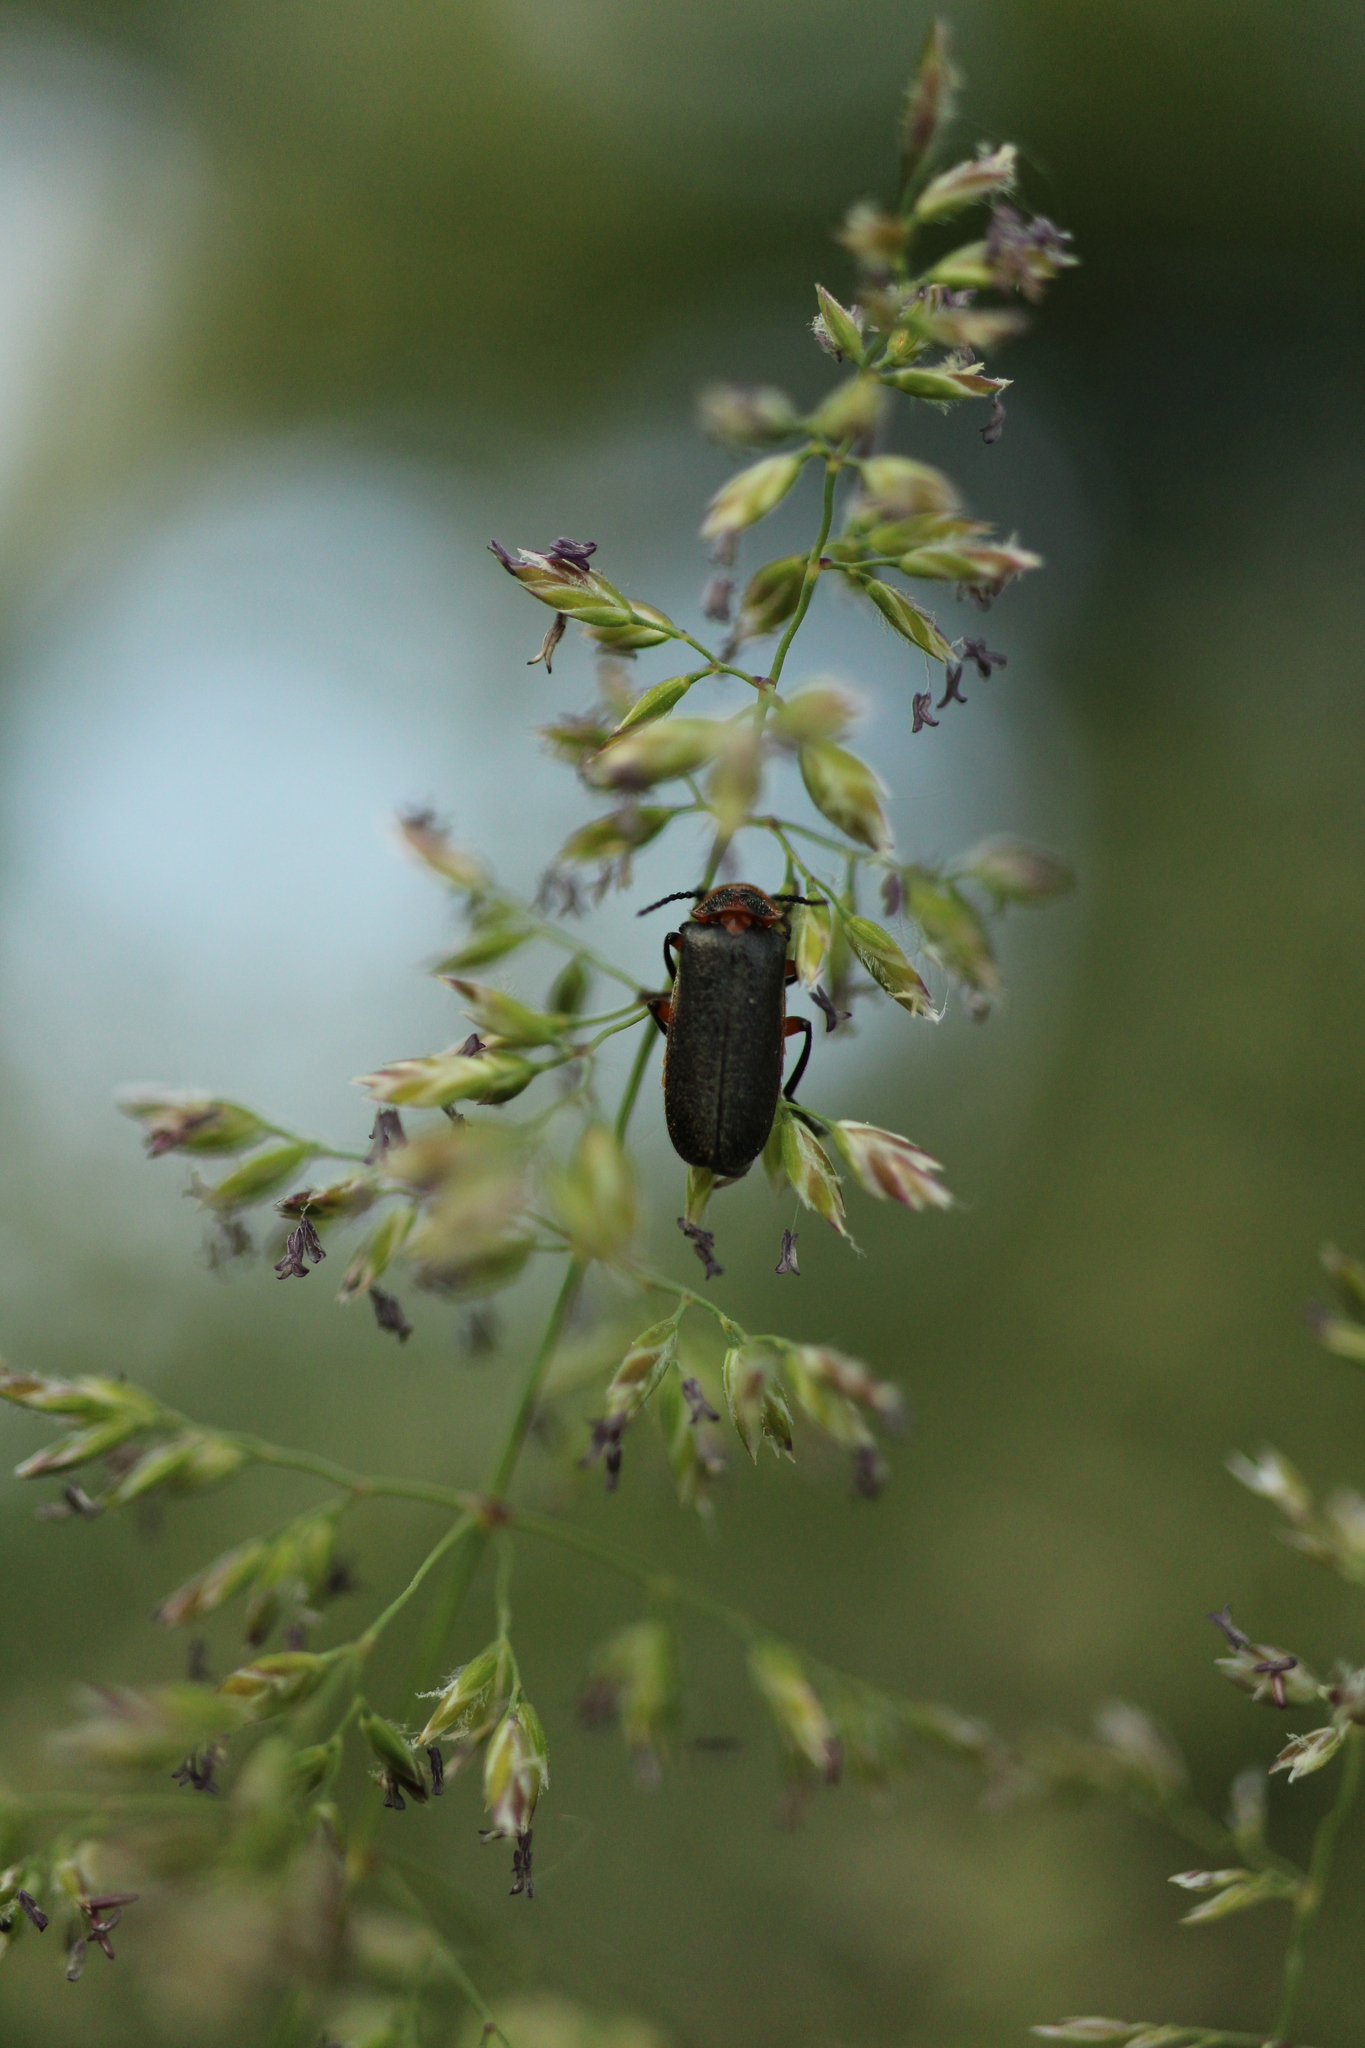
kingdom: Animalia
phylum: Arthropoda
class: Insecta
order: Coleoptera
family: Cantharidae
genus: Atalantycha
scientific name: Atalantycha bilineata
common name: Two-lined leatherwing
